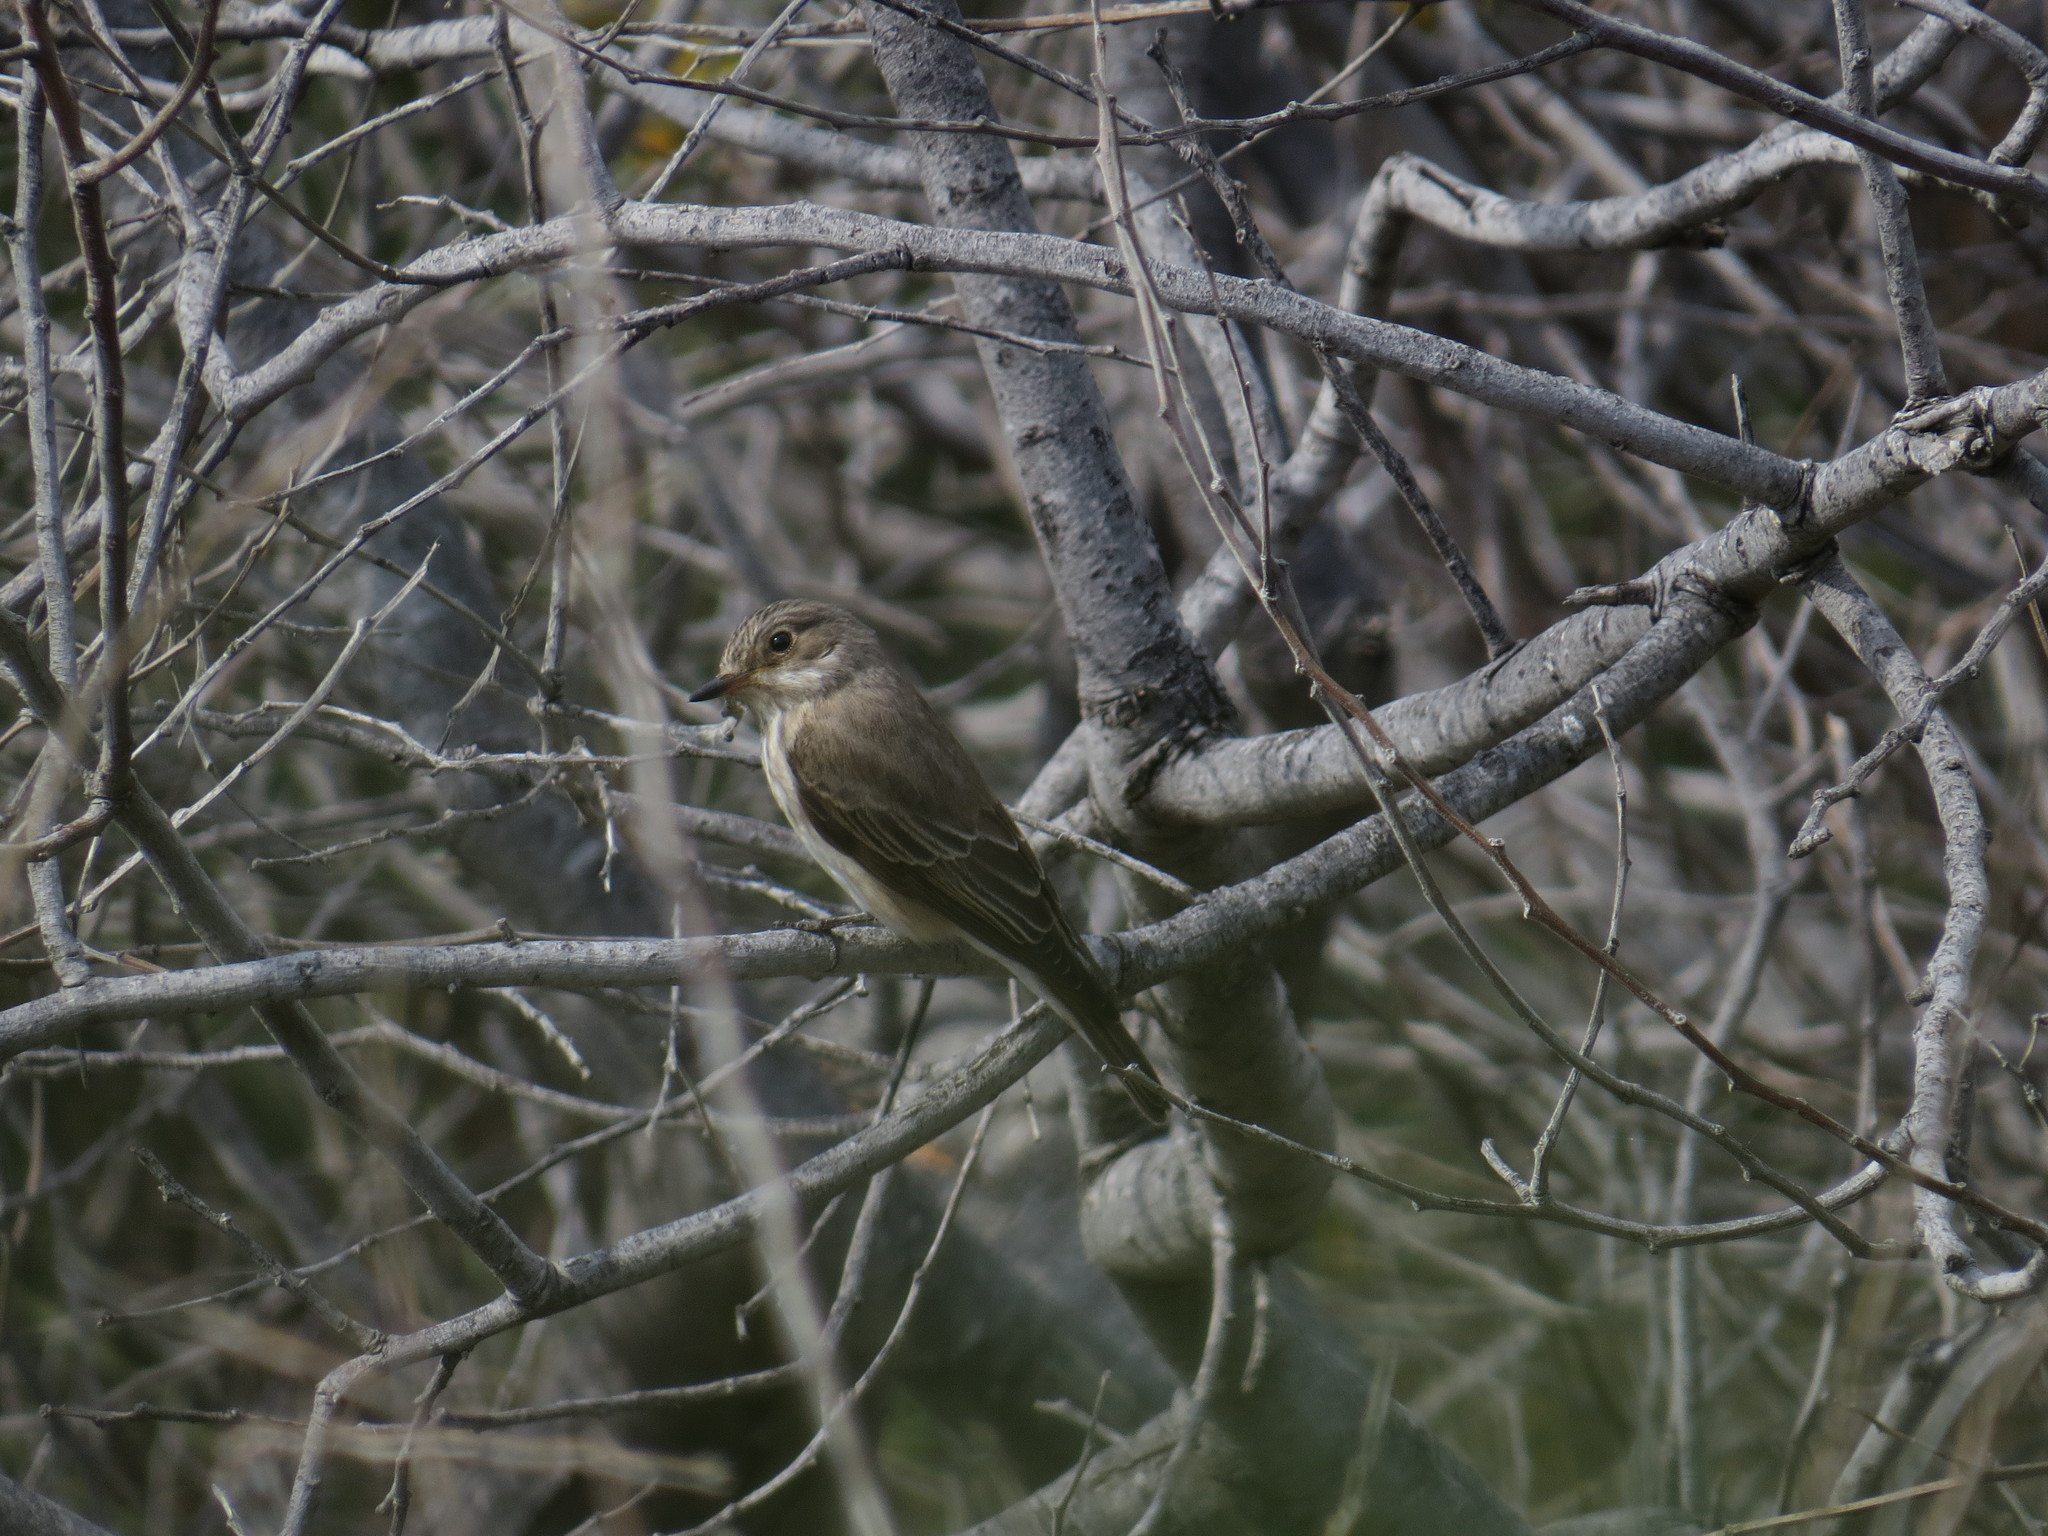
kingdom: Animalia
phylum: Chordata
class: Aves
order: Passeriformes
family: Muscicapidae
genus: Muscicapa
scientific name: Muscicapa striata
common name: Spotted flycatcher
